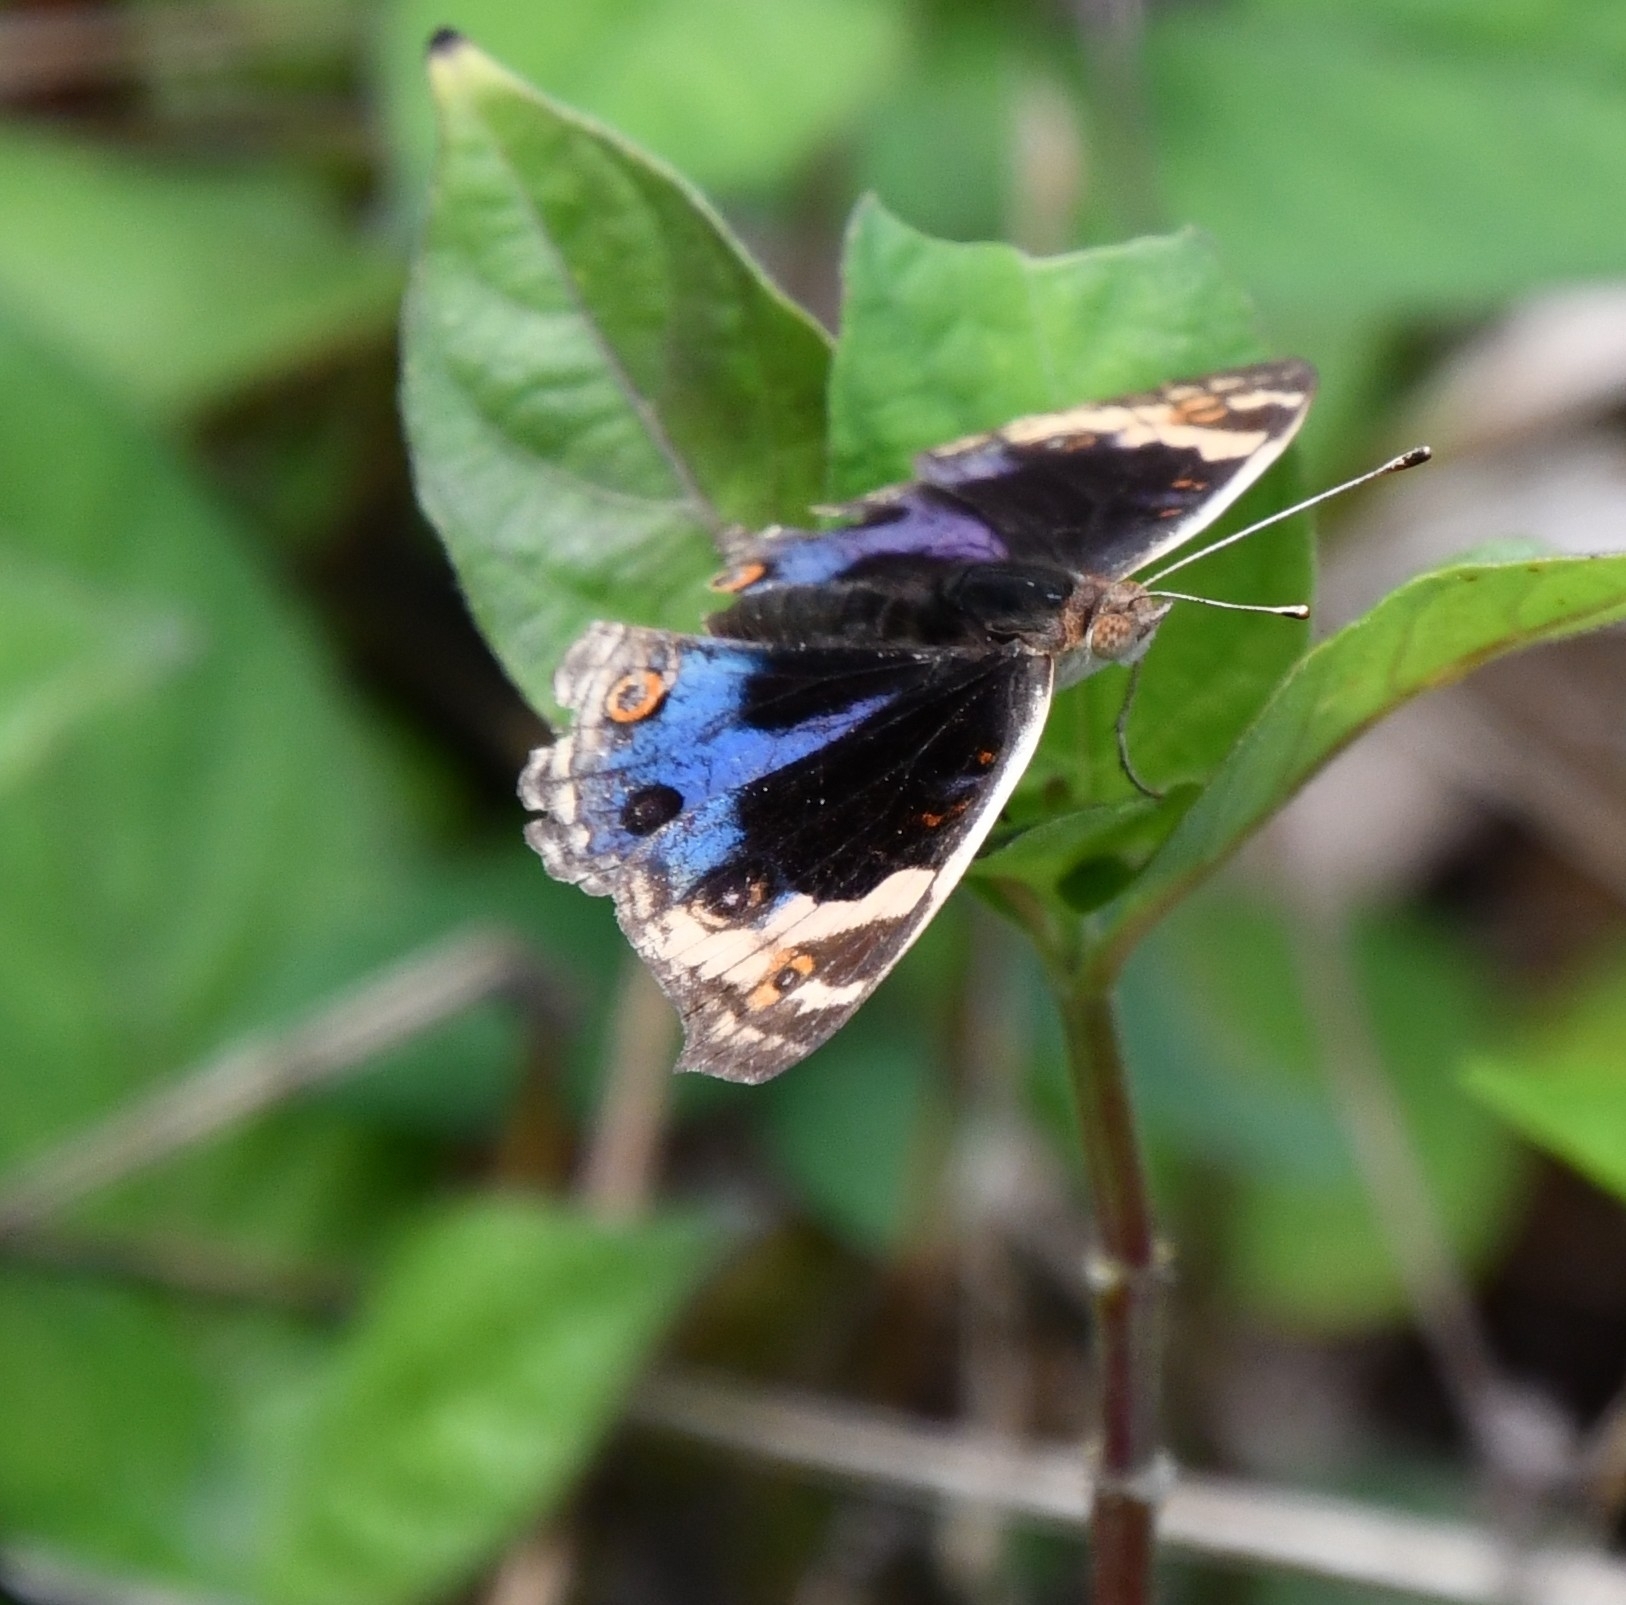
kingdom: Animalia
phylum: Arthropoda
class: Insecta
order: Lepidoptera
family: Nymphalidae
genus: Junonia
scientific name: Junonia orithya
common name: Blue pansy
